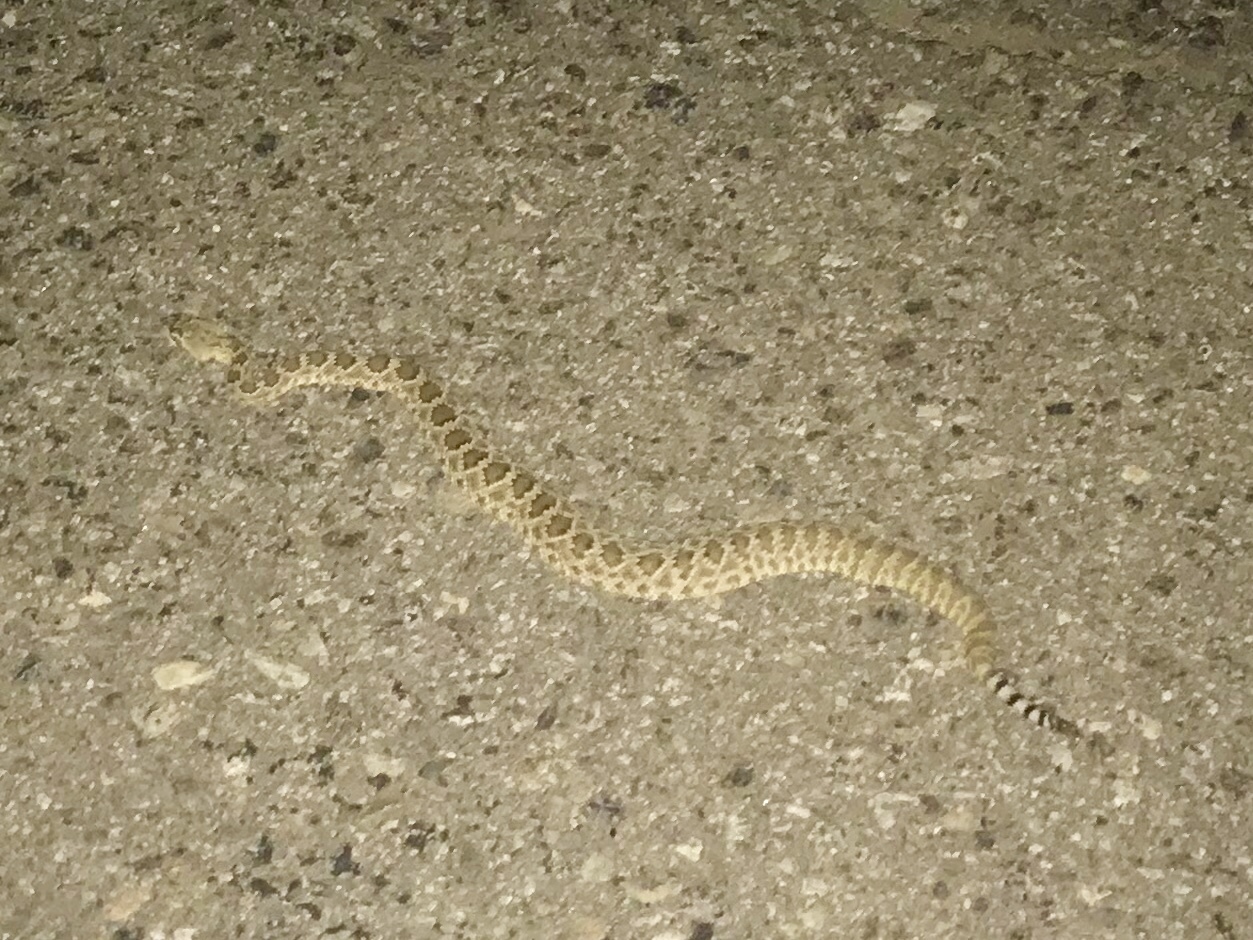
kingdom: Animalia
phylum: Chordata
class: Squamata
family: Viperidae
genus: Crotalus
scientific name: Crotalus scutulatus
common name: Scutulatus
